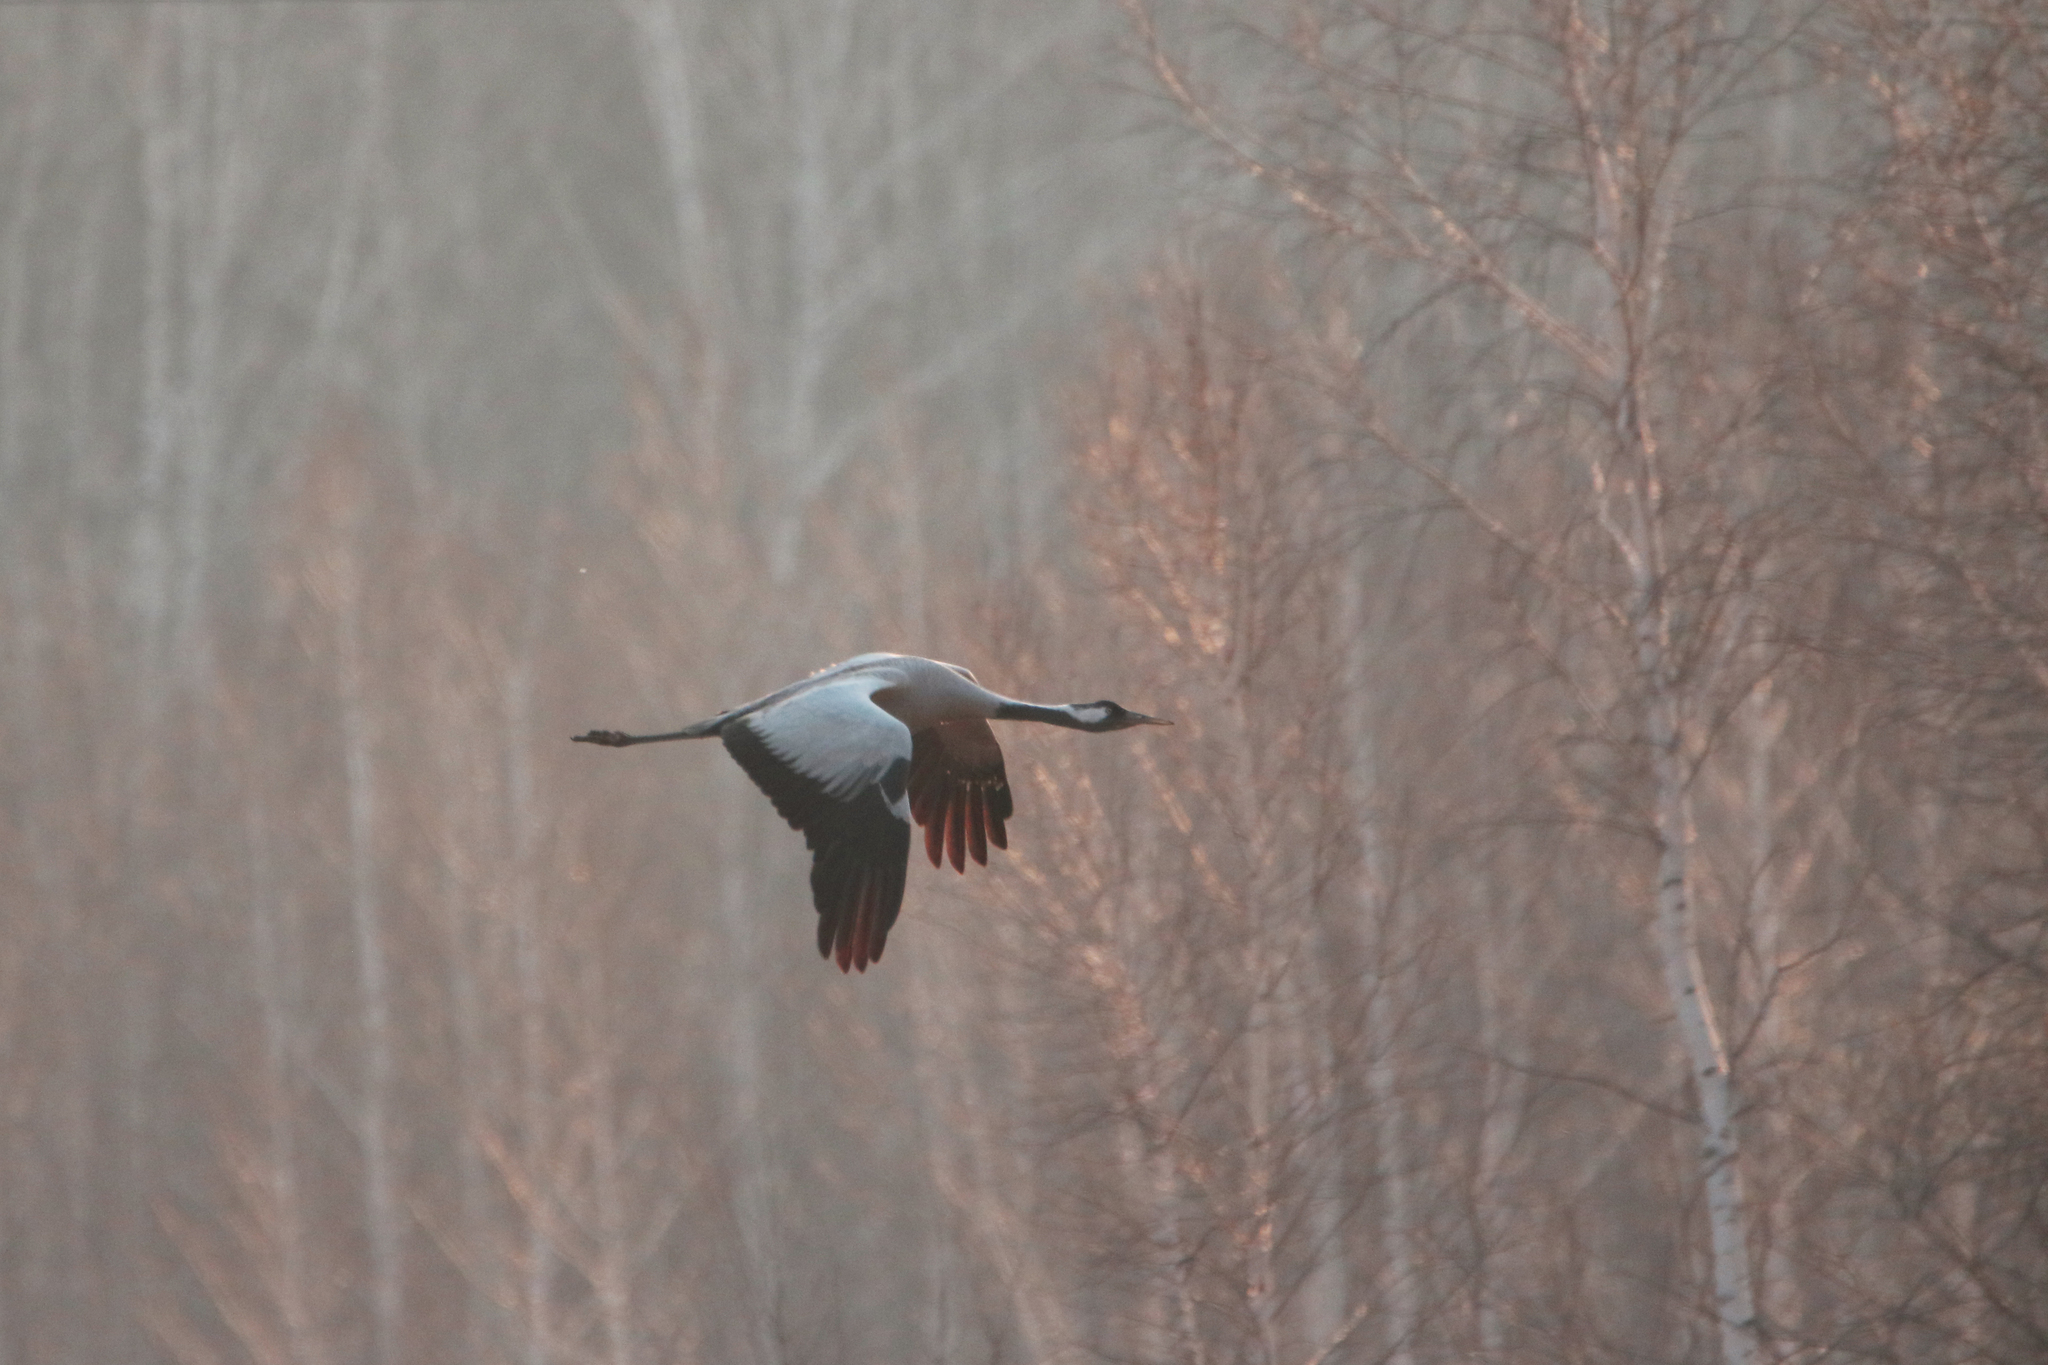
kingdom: Animalia
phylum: Chordata
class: Aves
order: Gruiformes
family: Gruidae
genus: Grus
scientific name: Grus grus
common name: Common crane
